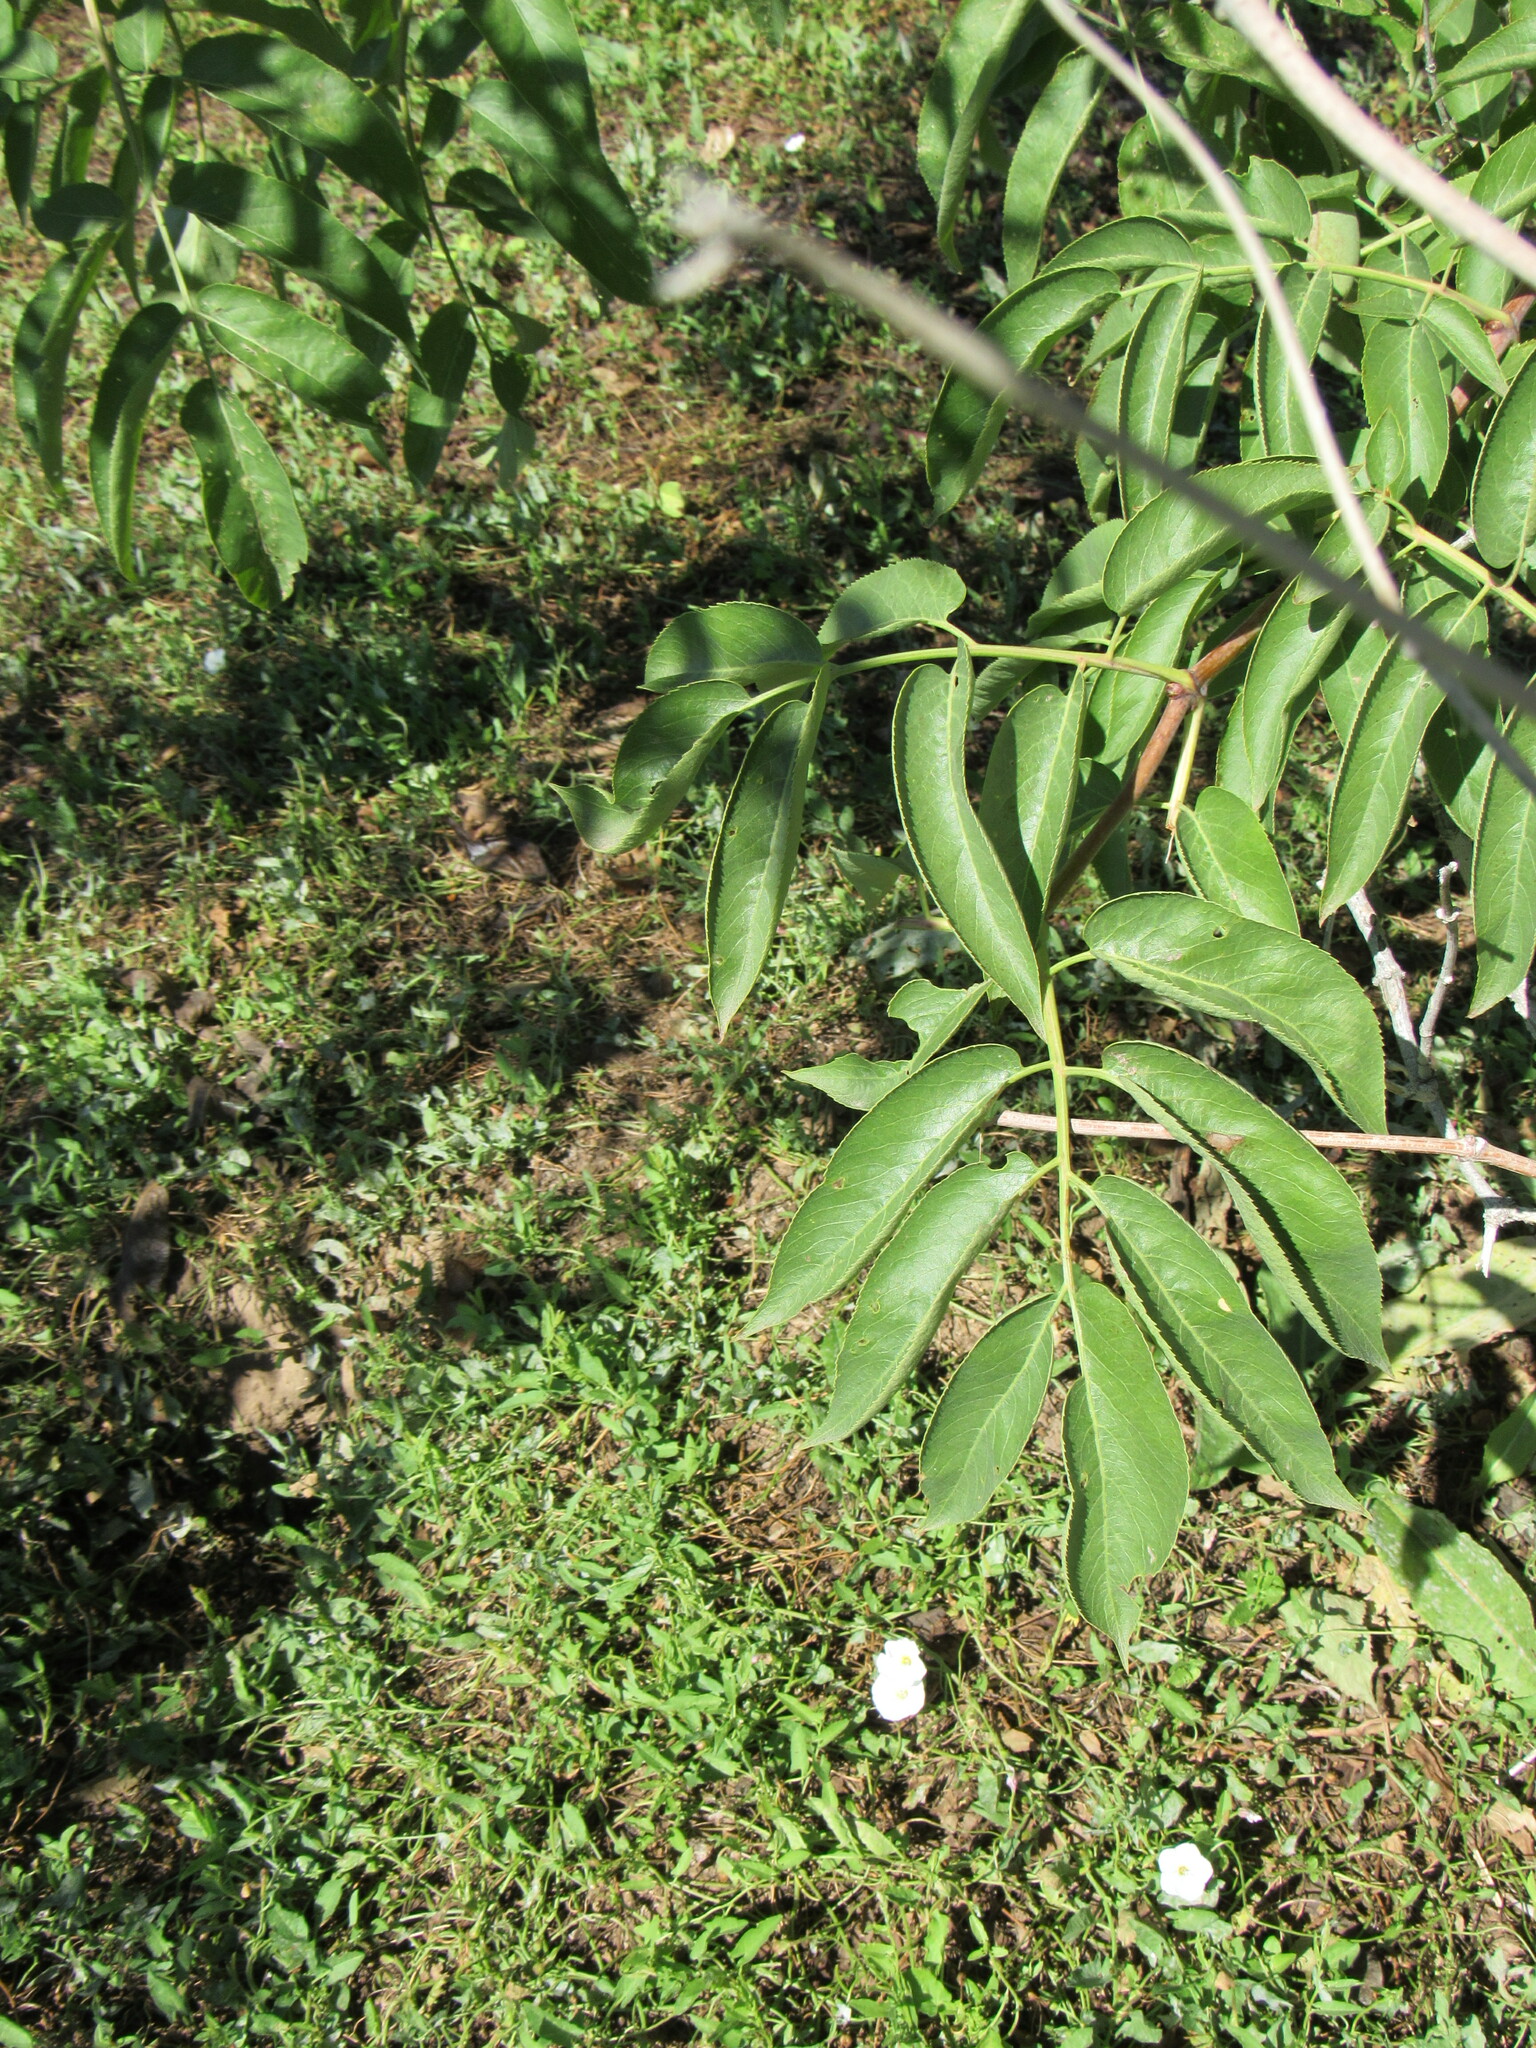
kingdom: Plantae
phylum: Tracheophyta
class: Magnoliopsida
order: Dipsacales
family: Viburnaceae
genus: Sambucus
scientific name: Sambucus cerulea
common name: Blue elder
